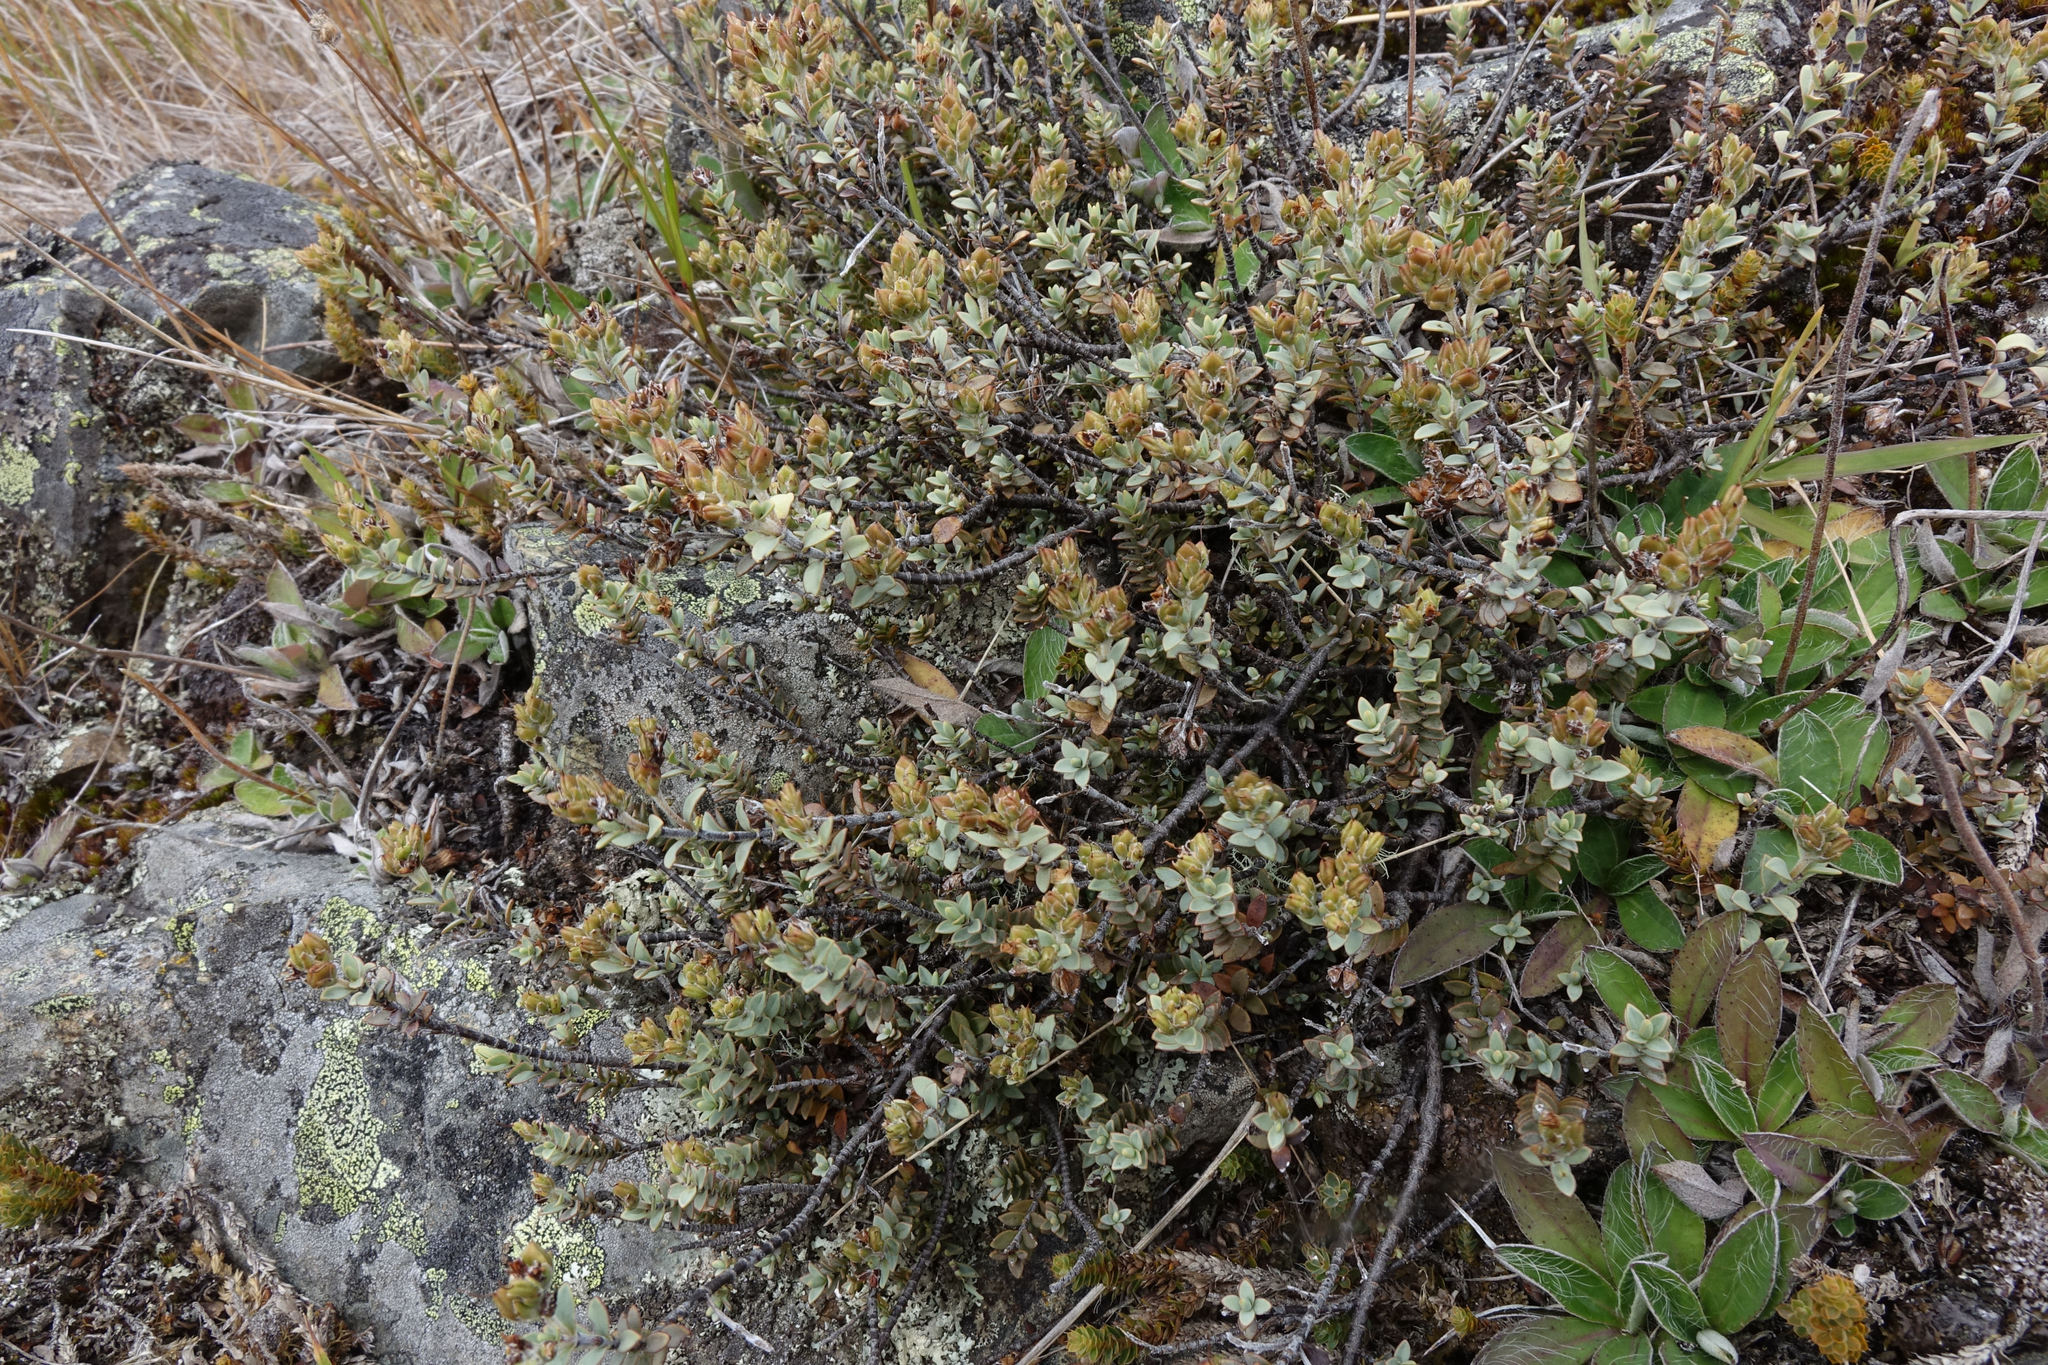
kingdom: Plantae
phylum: Tracheophyta
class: Magnoliopsida
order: Lamiales
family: Plantaginaceae
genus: Veronica
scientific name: Veronica pimeleoides
